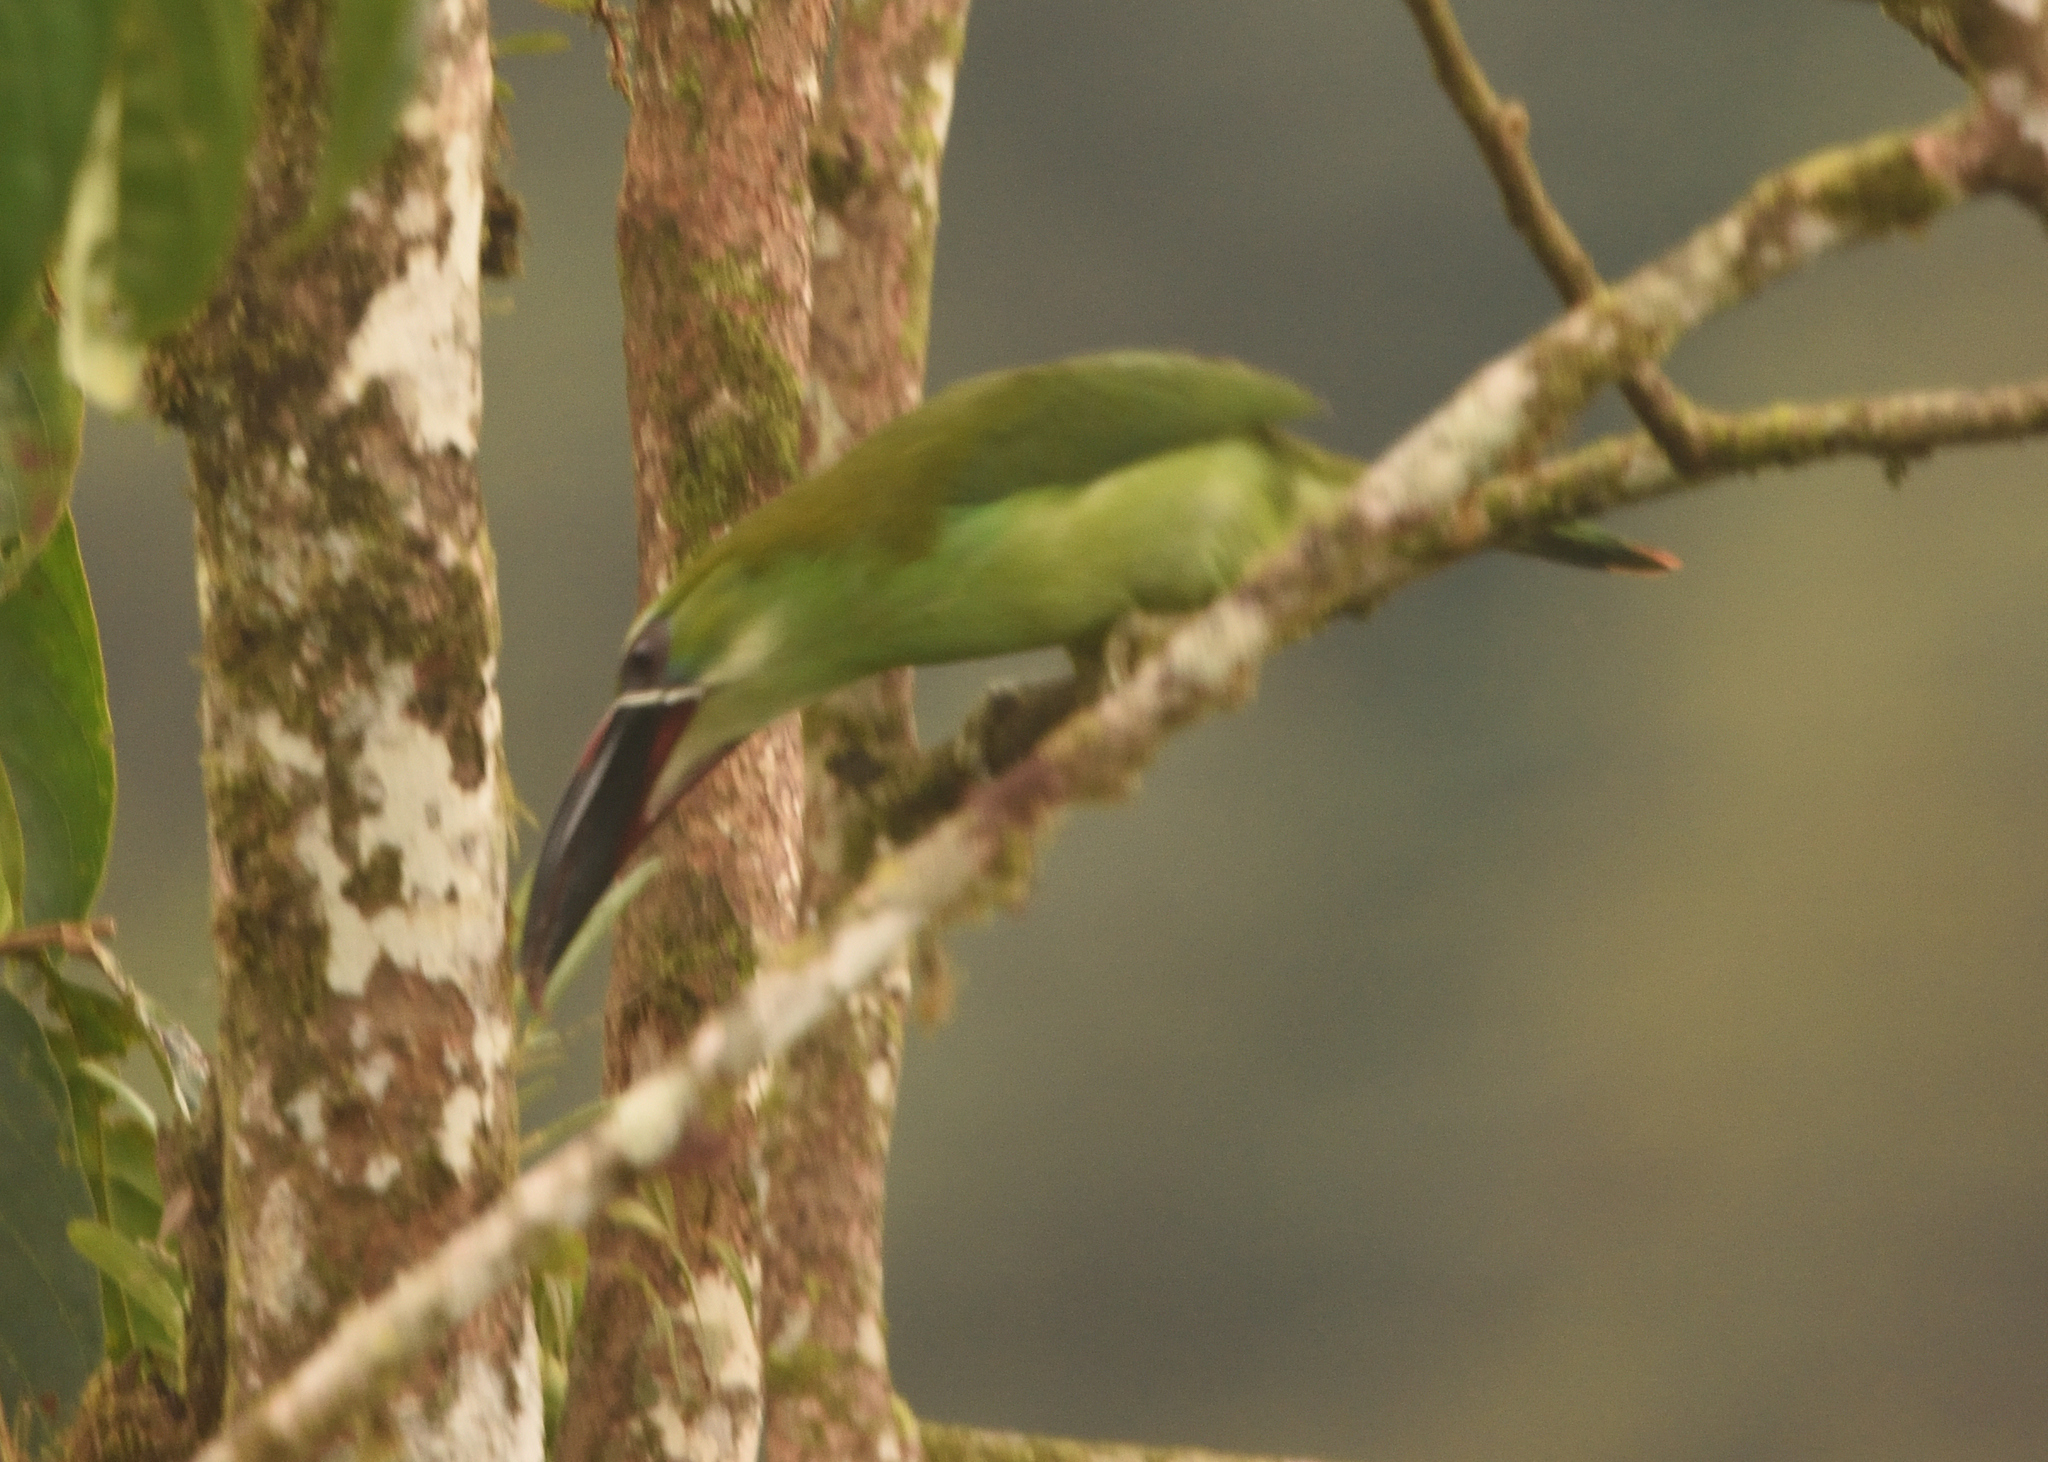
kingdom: Animalia
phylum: Chordata
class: Aves
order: Piciformes
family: Ramphastidae
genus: Aulacorhynchus
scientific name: Aulacorhynchus albivitta
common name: White-throated toucanet
